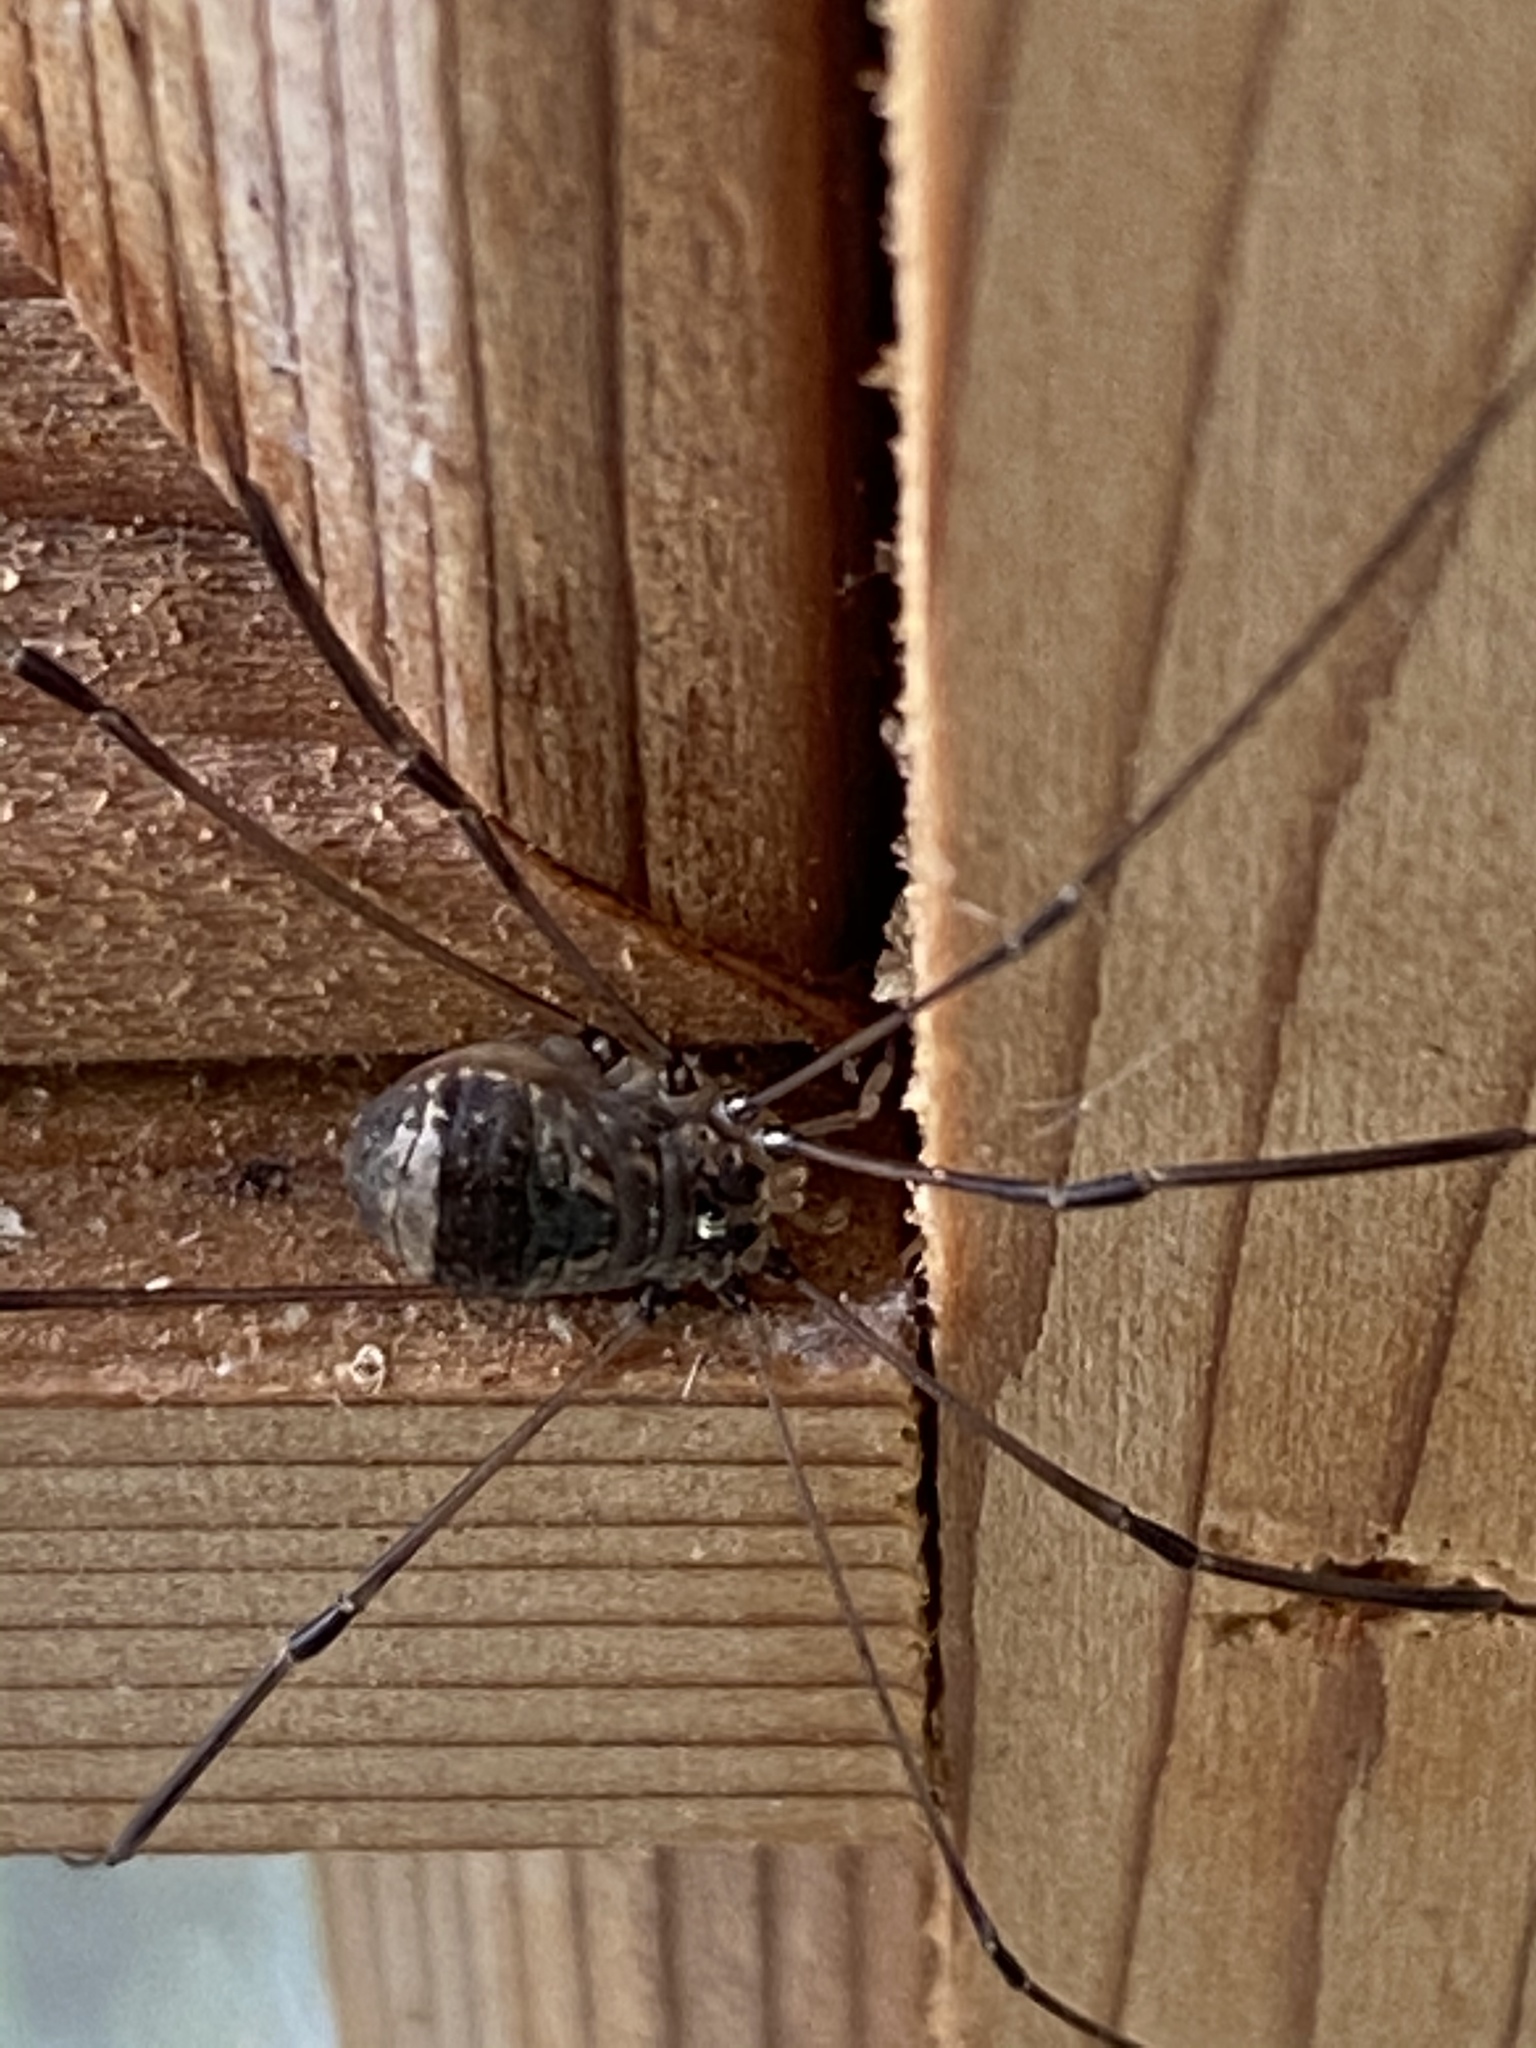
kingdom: Animalia
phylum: Arthropoda
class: Arachnida
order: Opiliones
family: Sclerosomatidae
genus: Leiobunum
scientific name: Leiobunum blackwalli
